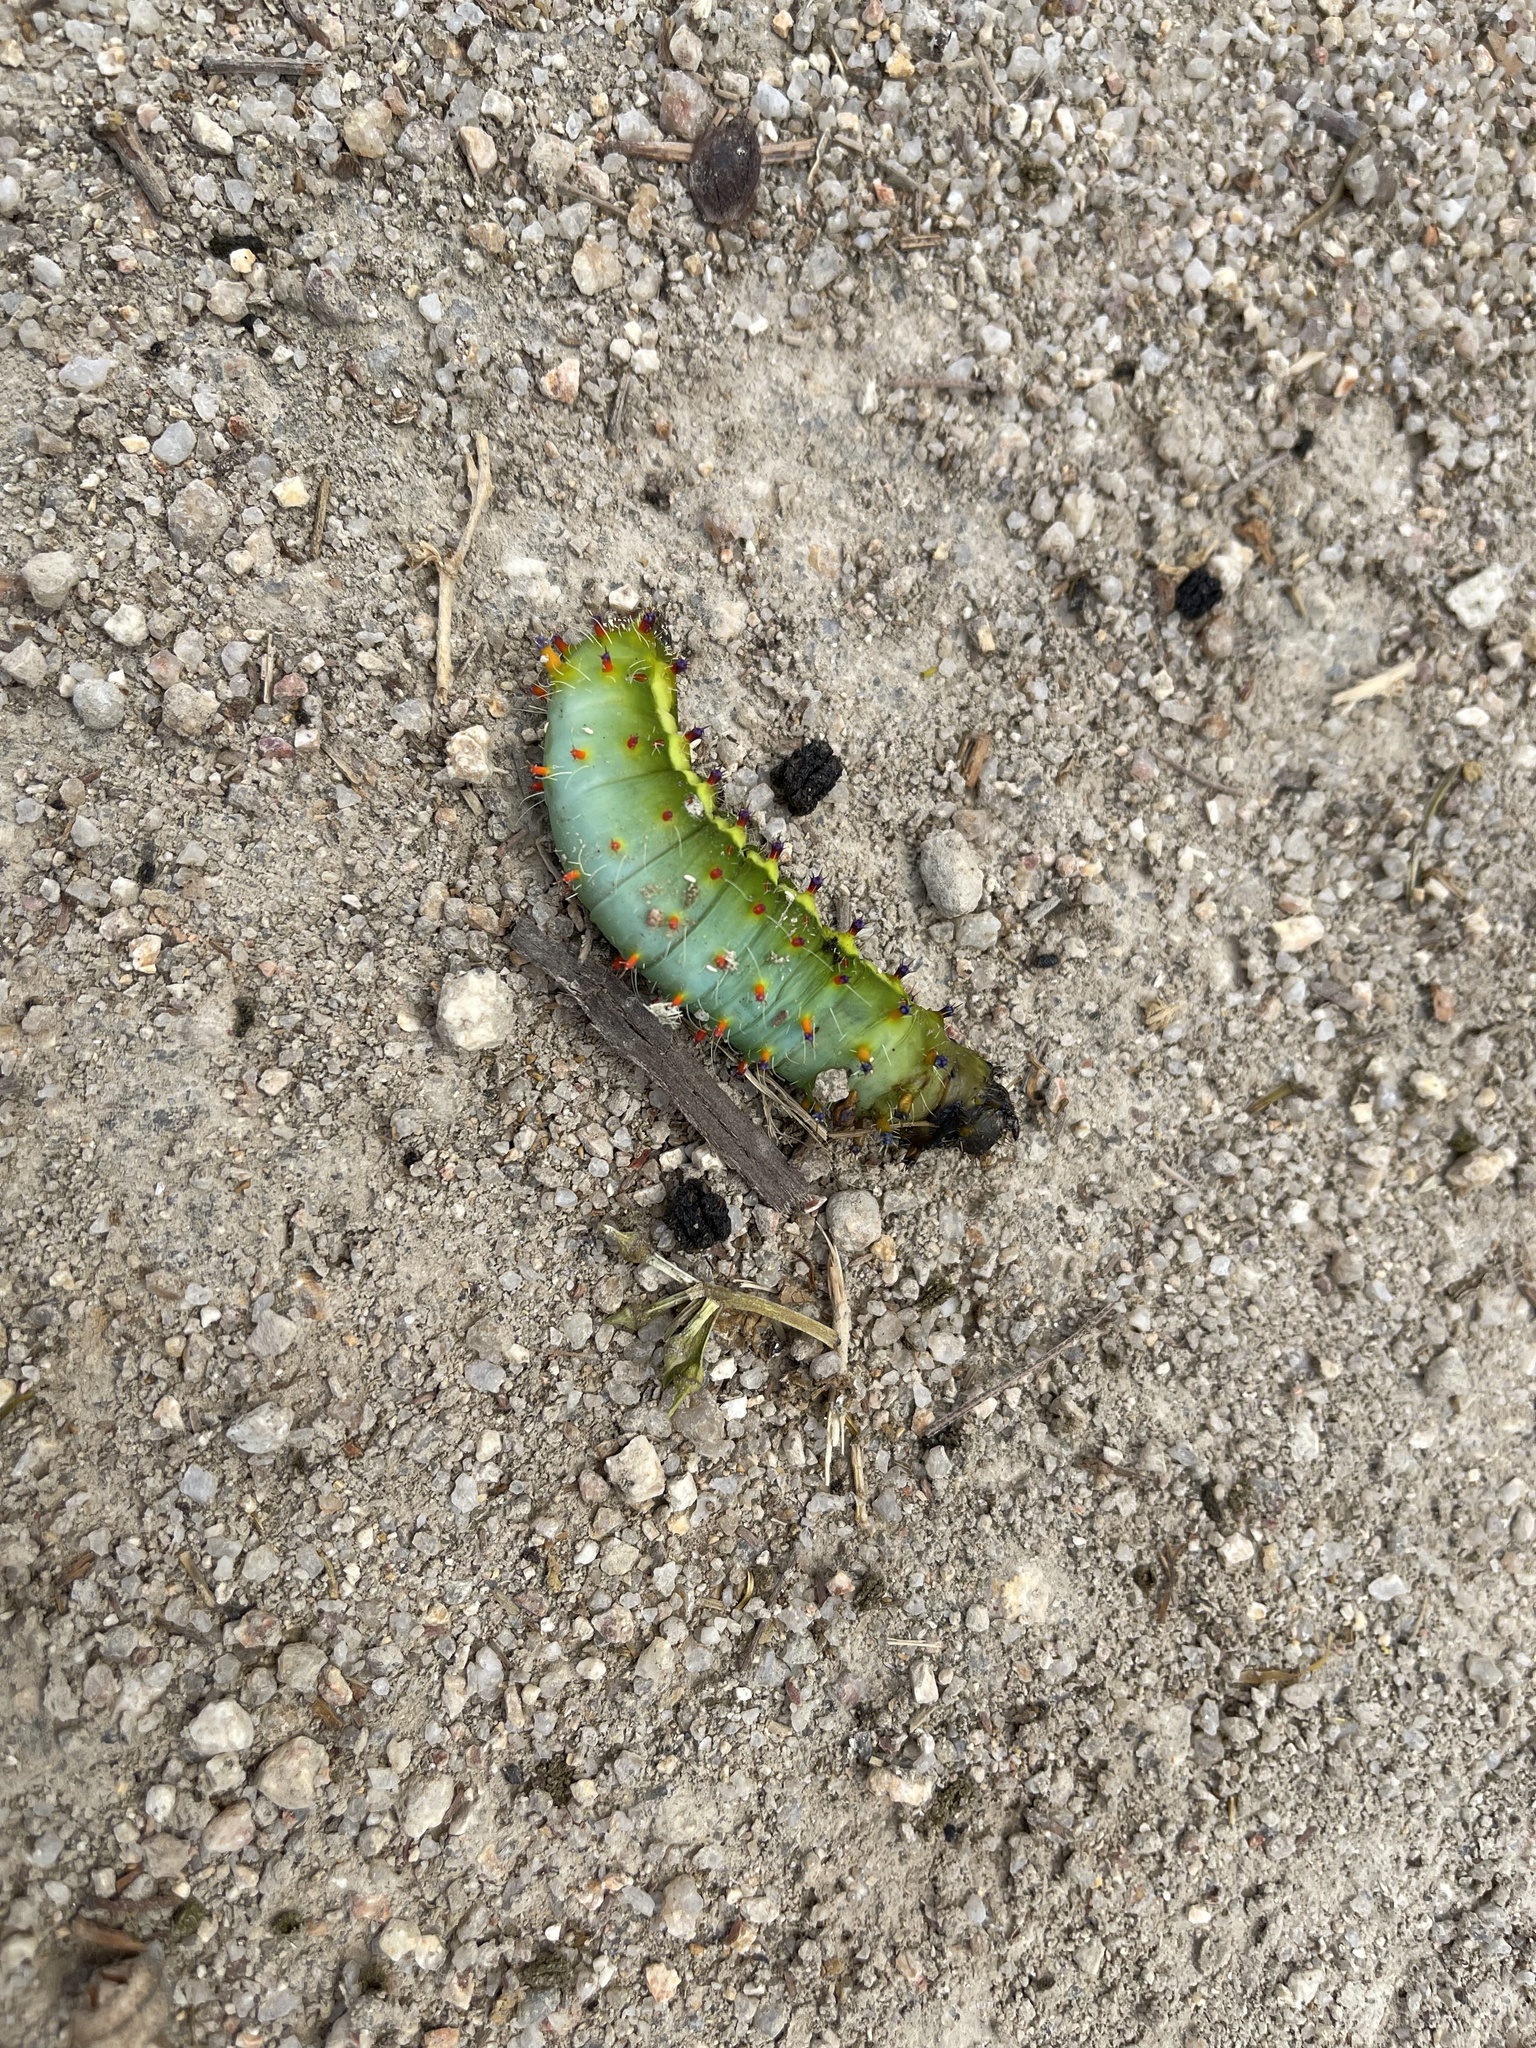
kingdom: Animalia
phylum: Arthropoda
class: Insecta
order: Lepidoptera
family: Saturniidae
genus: Opodiphthera
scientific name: Opodiphthera
